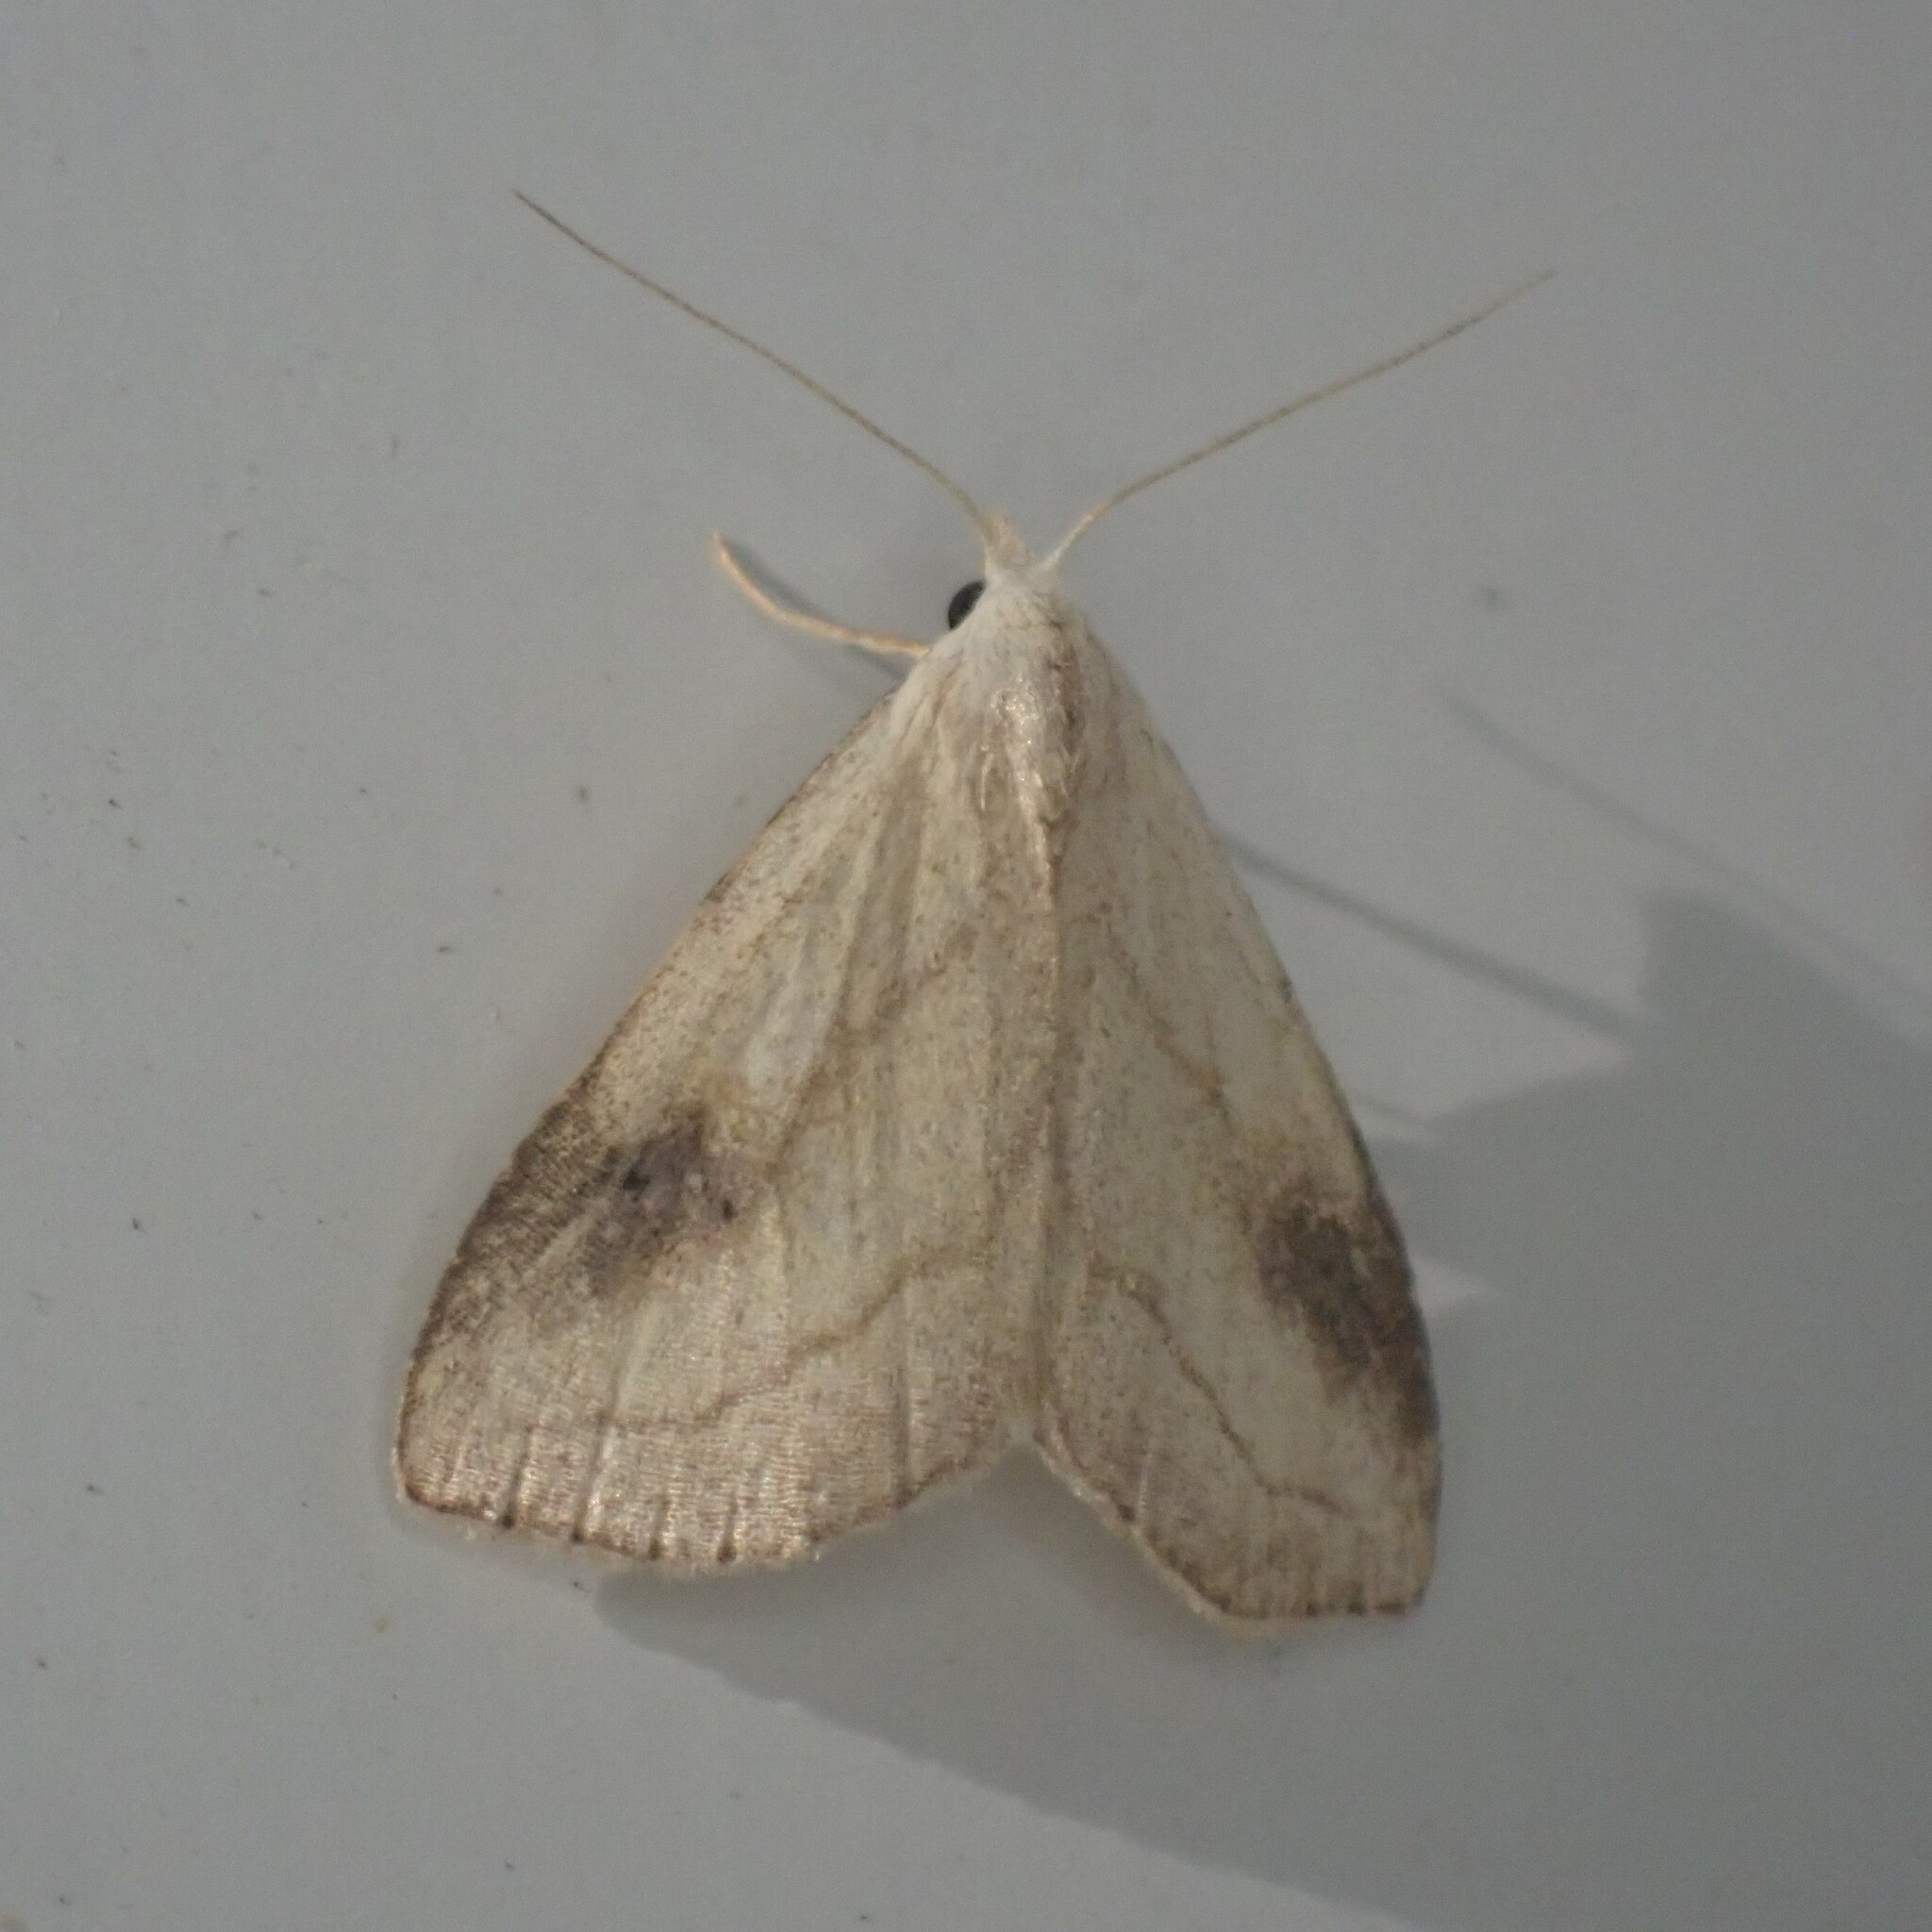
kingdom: Animalia
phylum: Arthropoda
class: Insecta
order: Lepidoptera
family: Erebidae
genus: Rivula
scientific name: Rivula propinqualis
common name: Spotted grass moth
